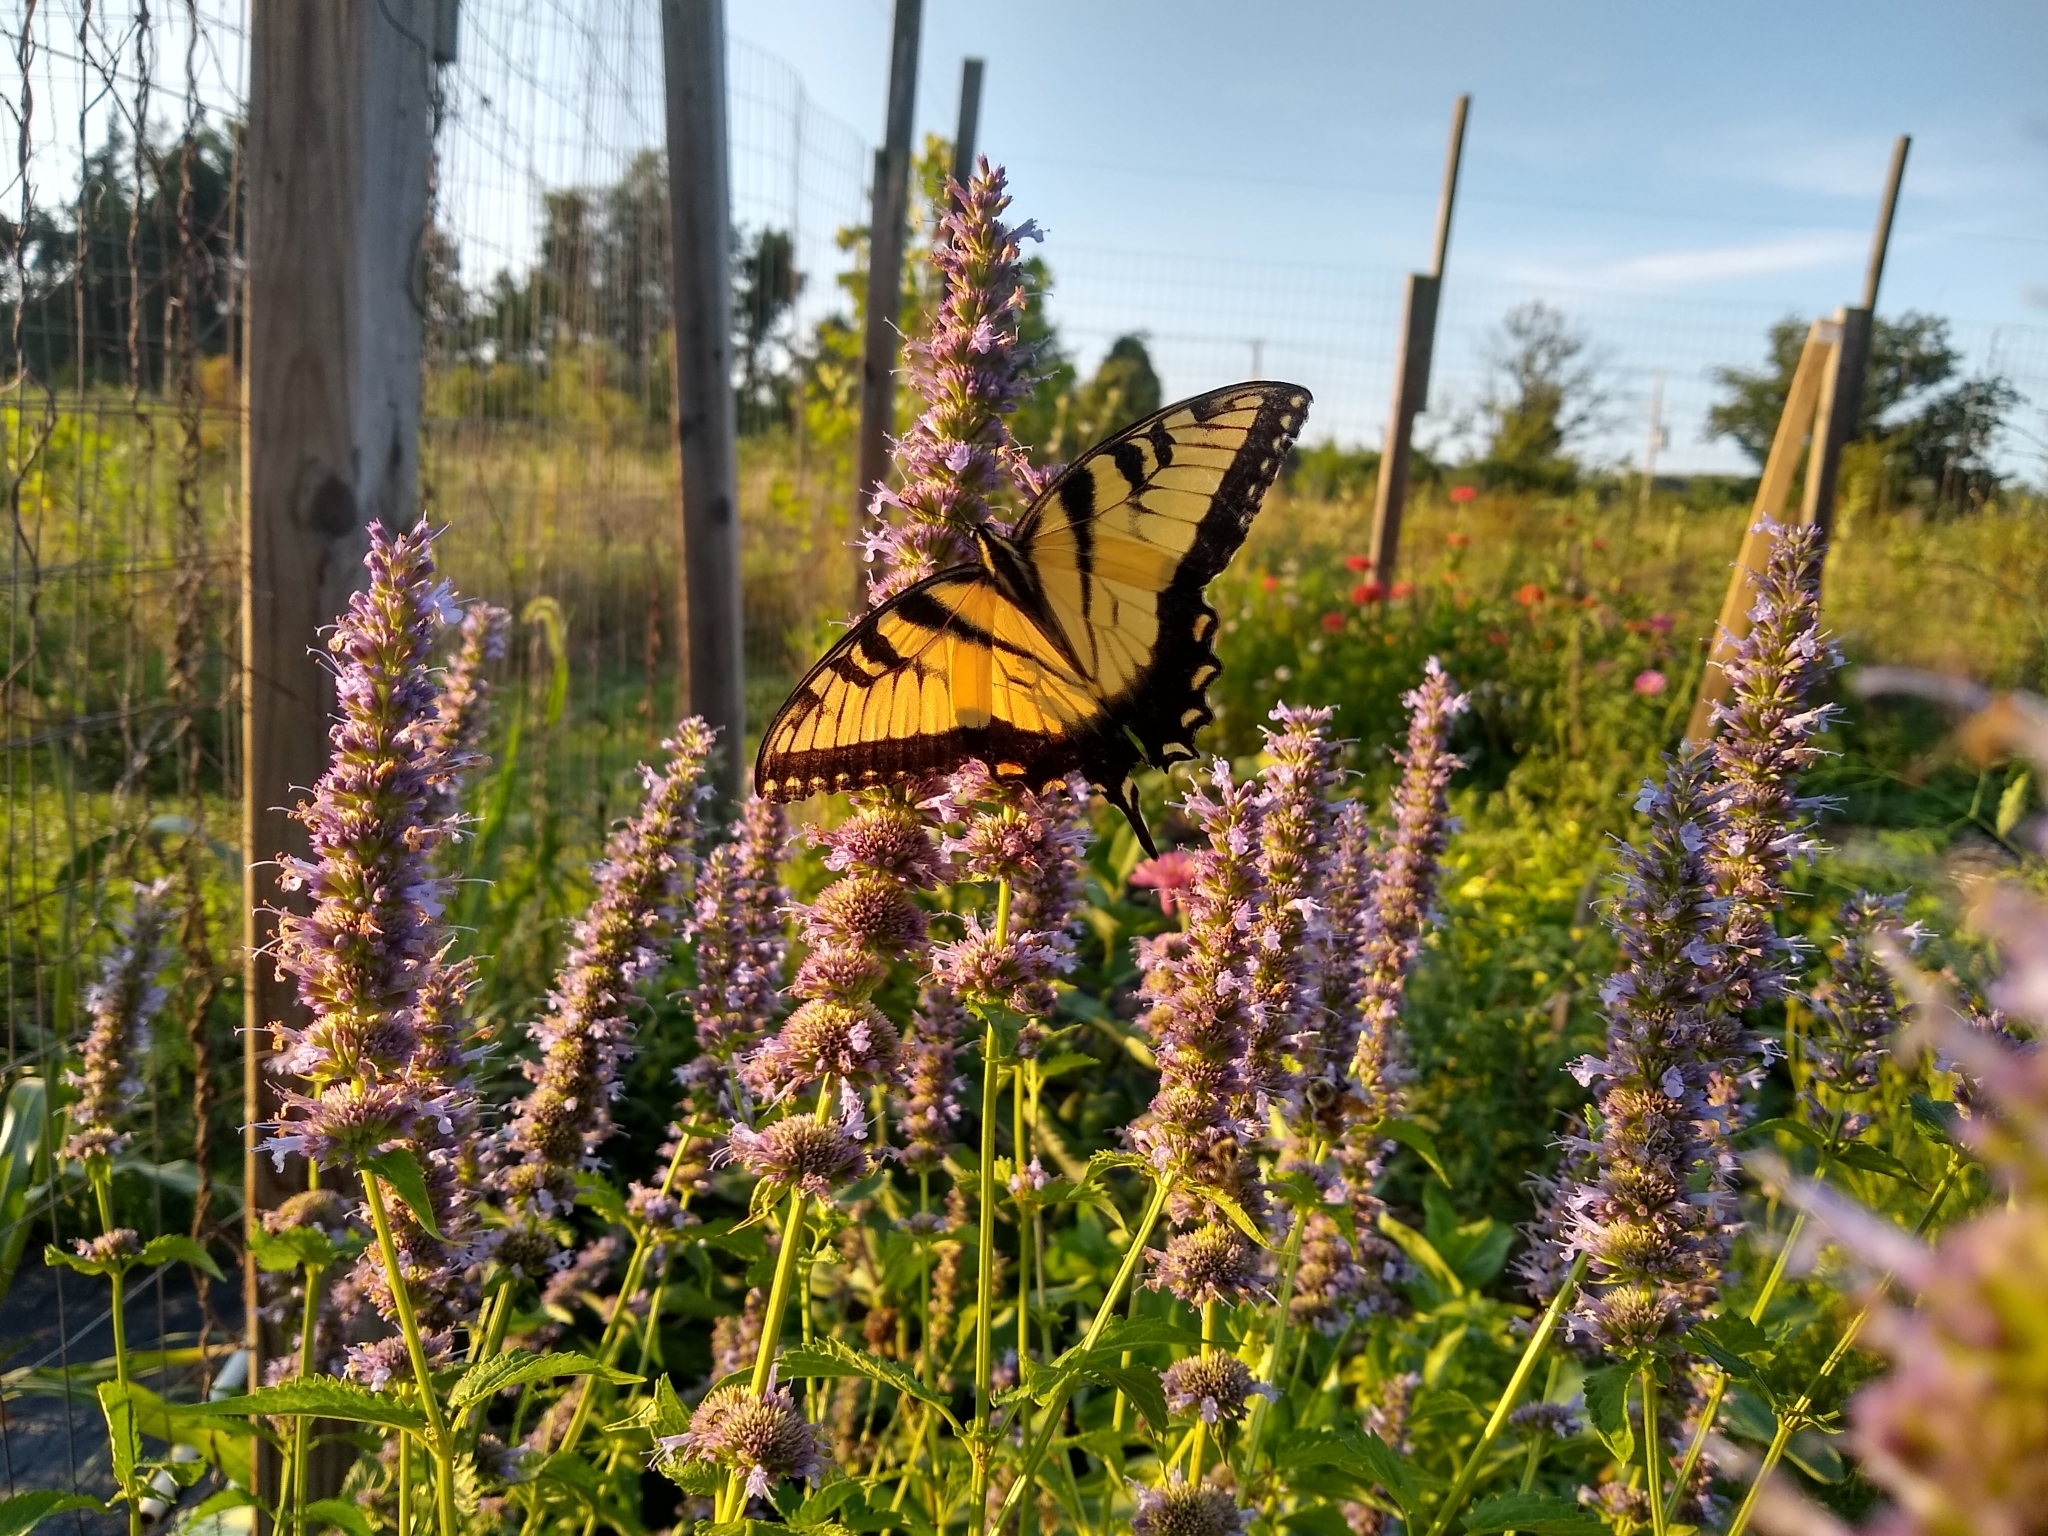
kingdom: Animalia
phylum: Arthropoda
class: Insecta
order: Lepidoptera
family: Papilionidae
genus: Papilio
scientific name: Papilio glaucus
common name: Tiger swallowtail
